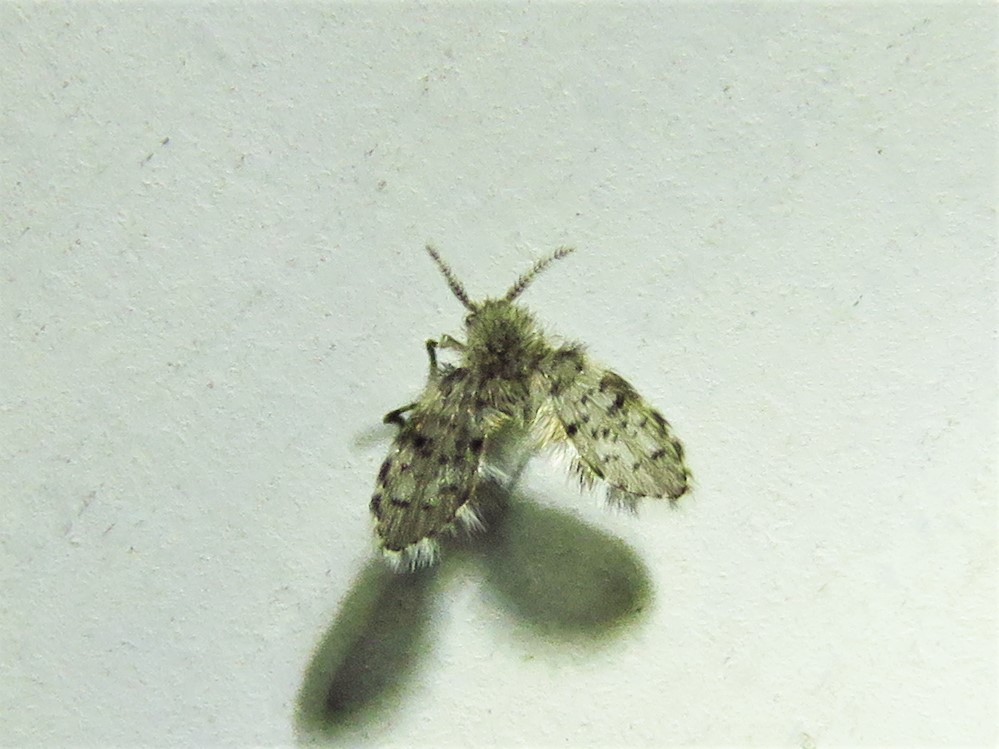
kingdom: Animalia
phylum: Arthropoda
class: Insecta
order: Diptera
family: Psychodidae
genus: Telmatoscopus
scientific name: Telmatoscopus furcatus
